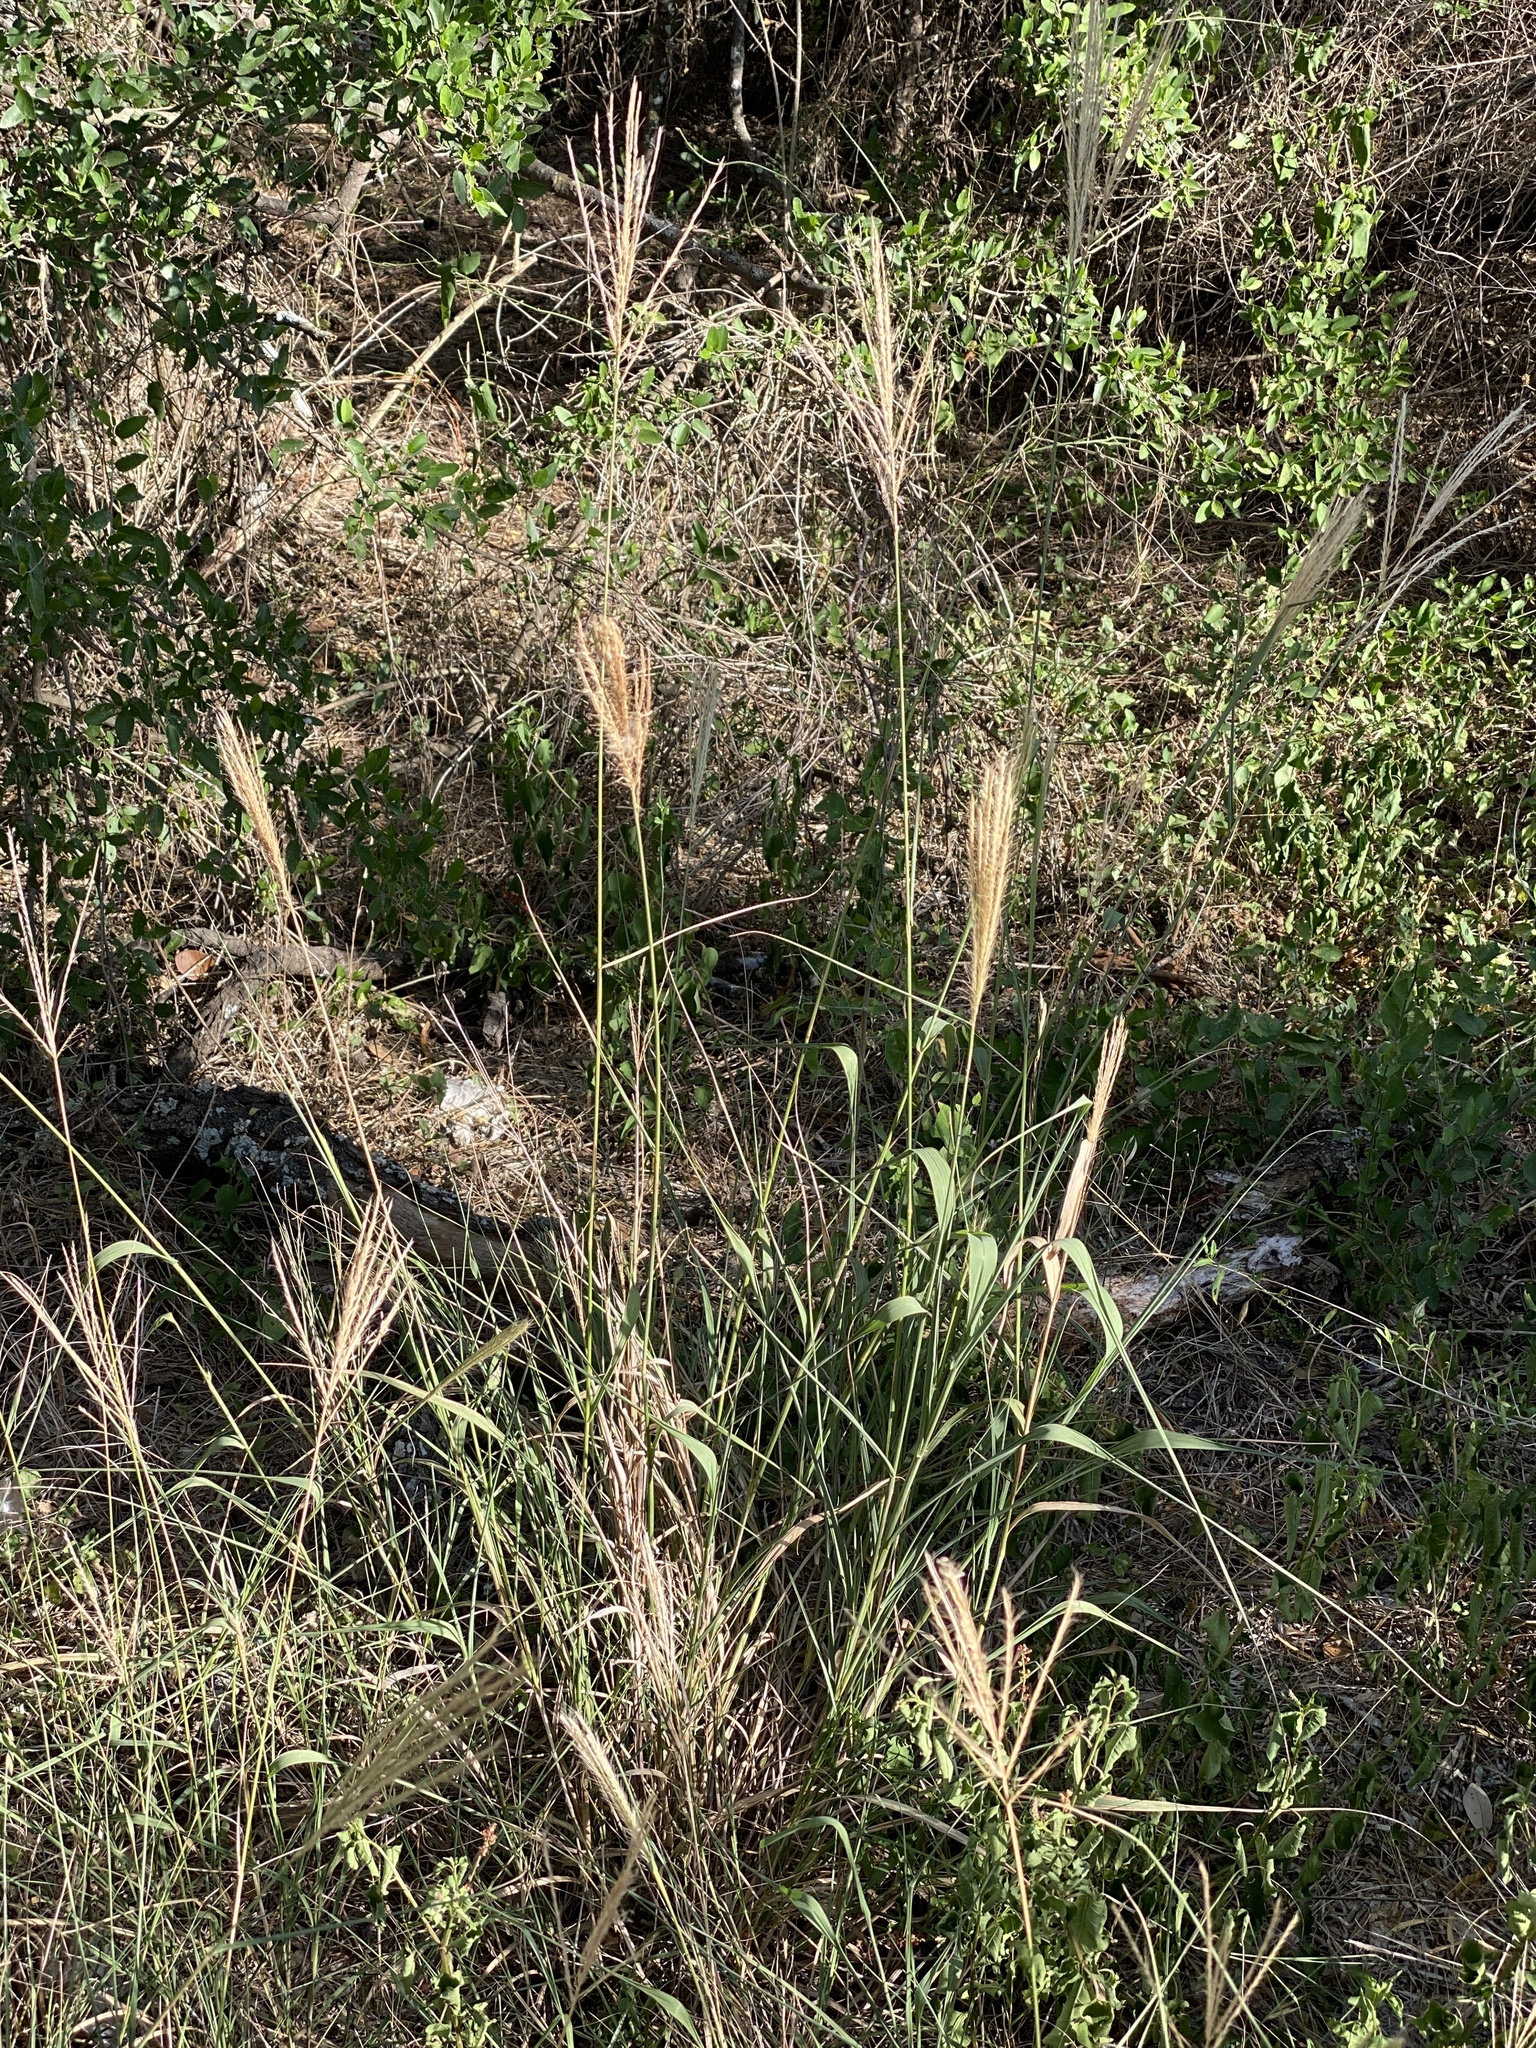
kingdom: Plantae
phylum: Tracheophyta
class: Liliopsida
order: Poales
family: Poaceae
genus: Leptochloa
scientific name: Leptochloa pluriflora
